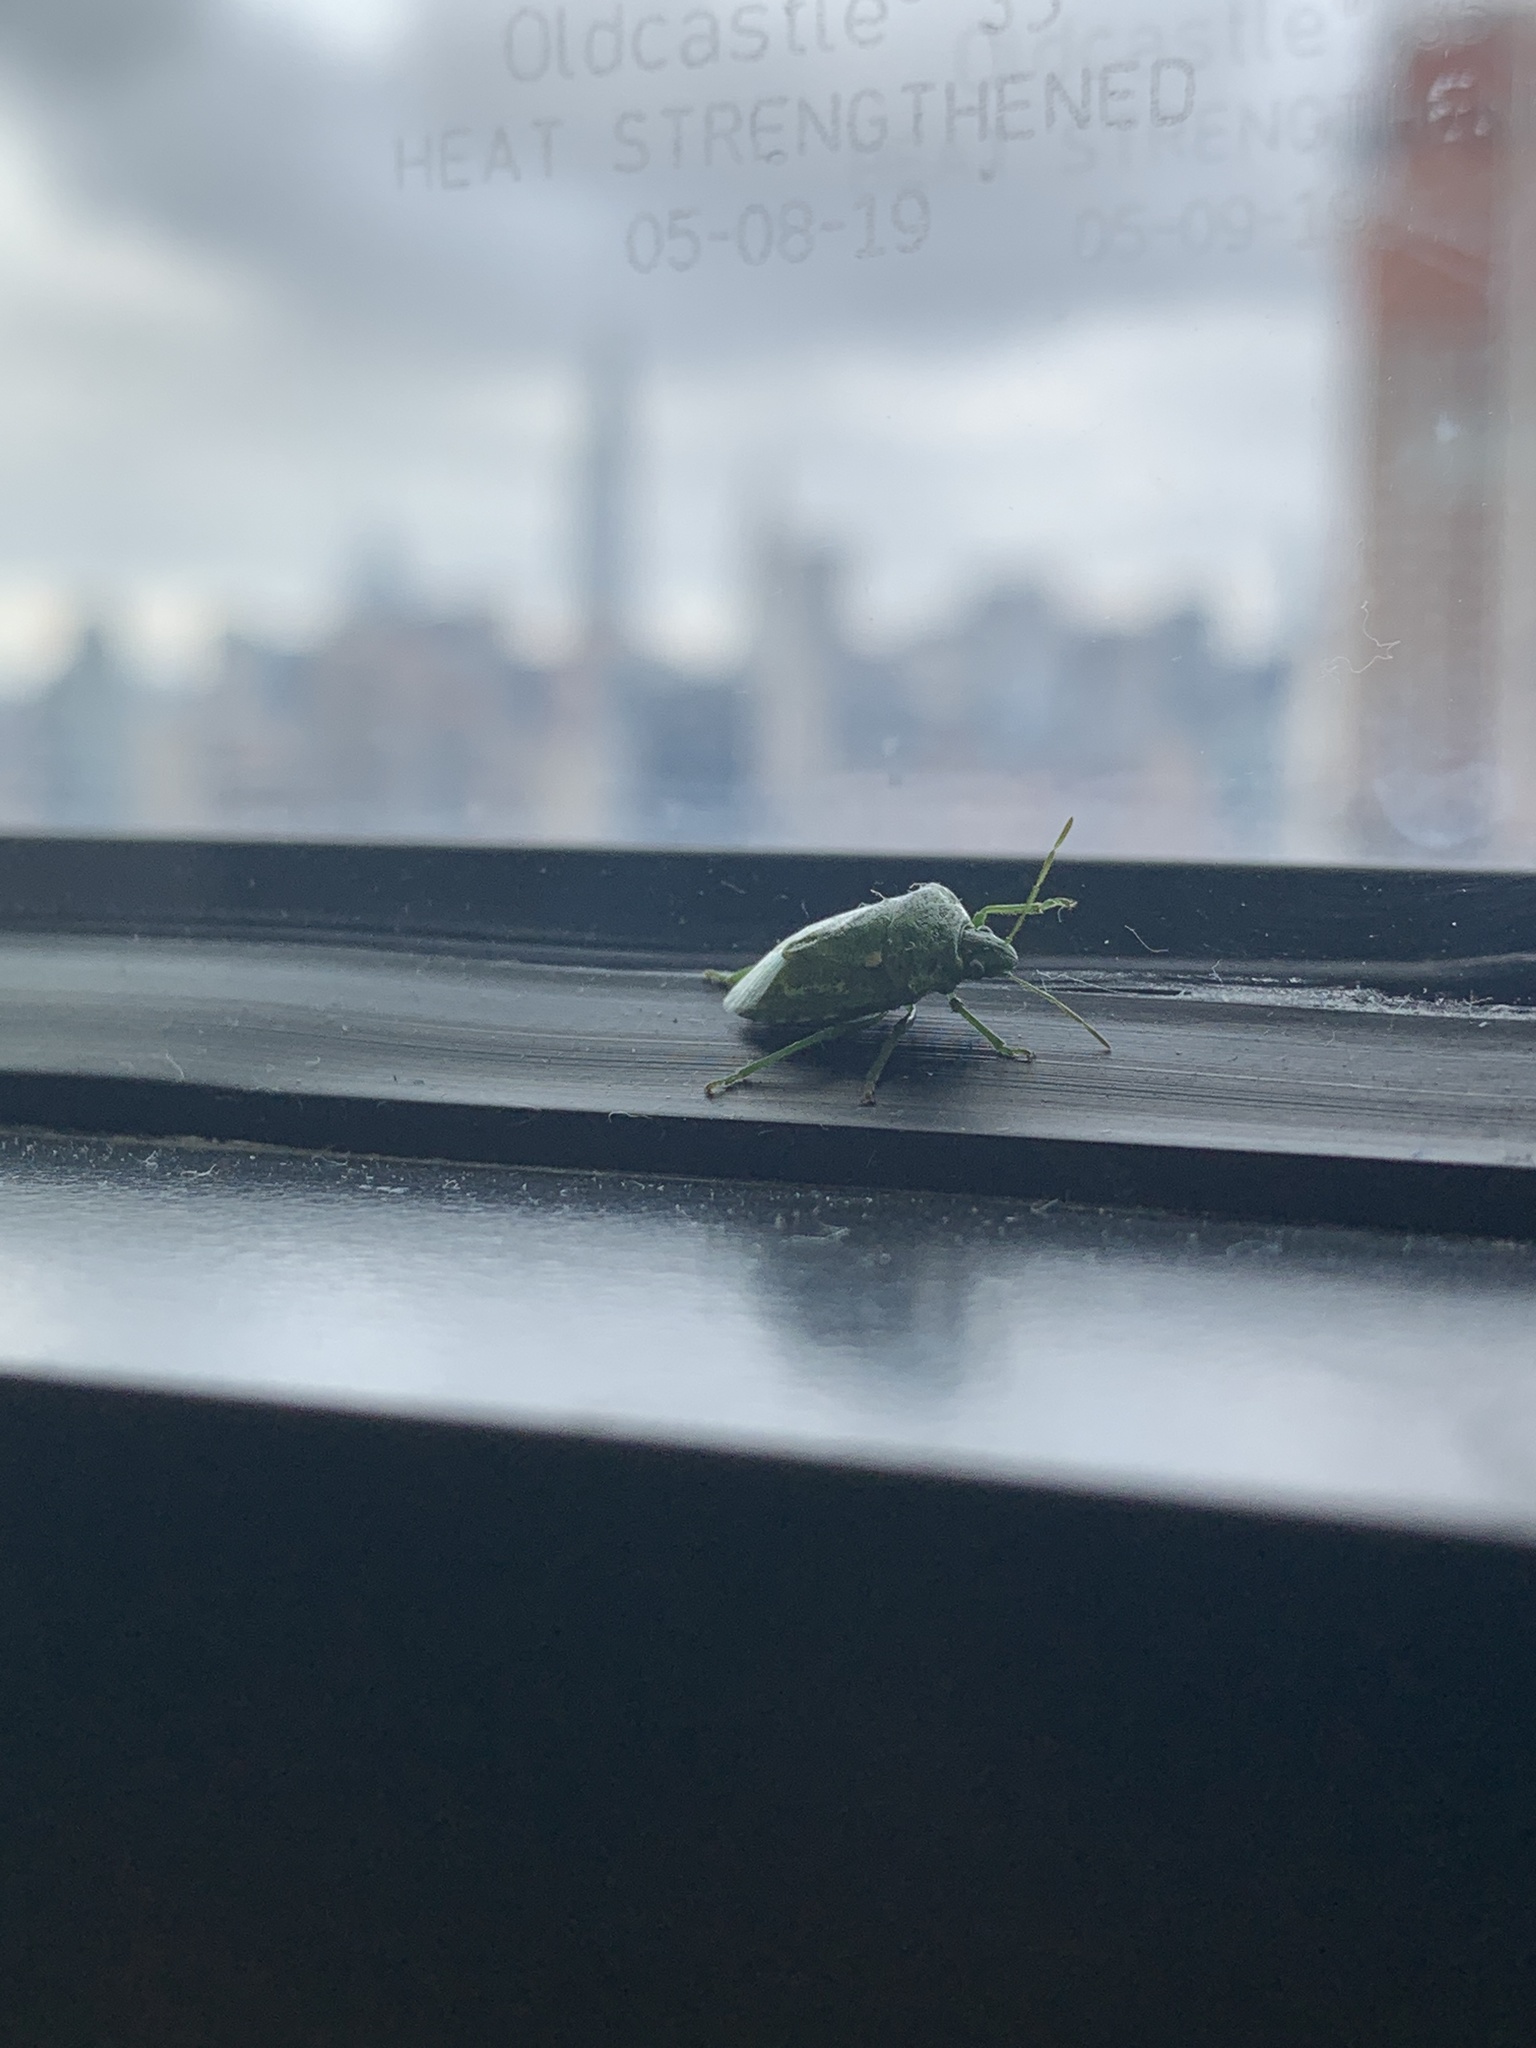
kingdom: Animalia
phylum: Arthropoda
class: Insecta
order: Hemiptera
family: Pentatomidae
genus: Banasa
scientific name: Banasa euchlora
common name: Cedar berry bug
